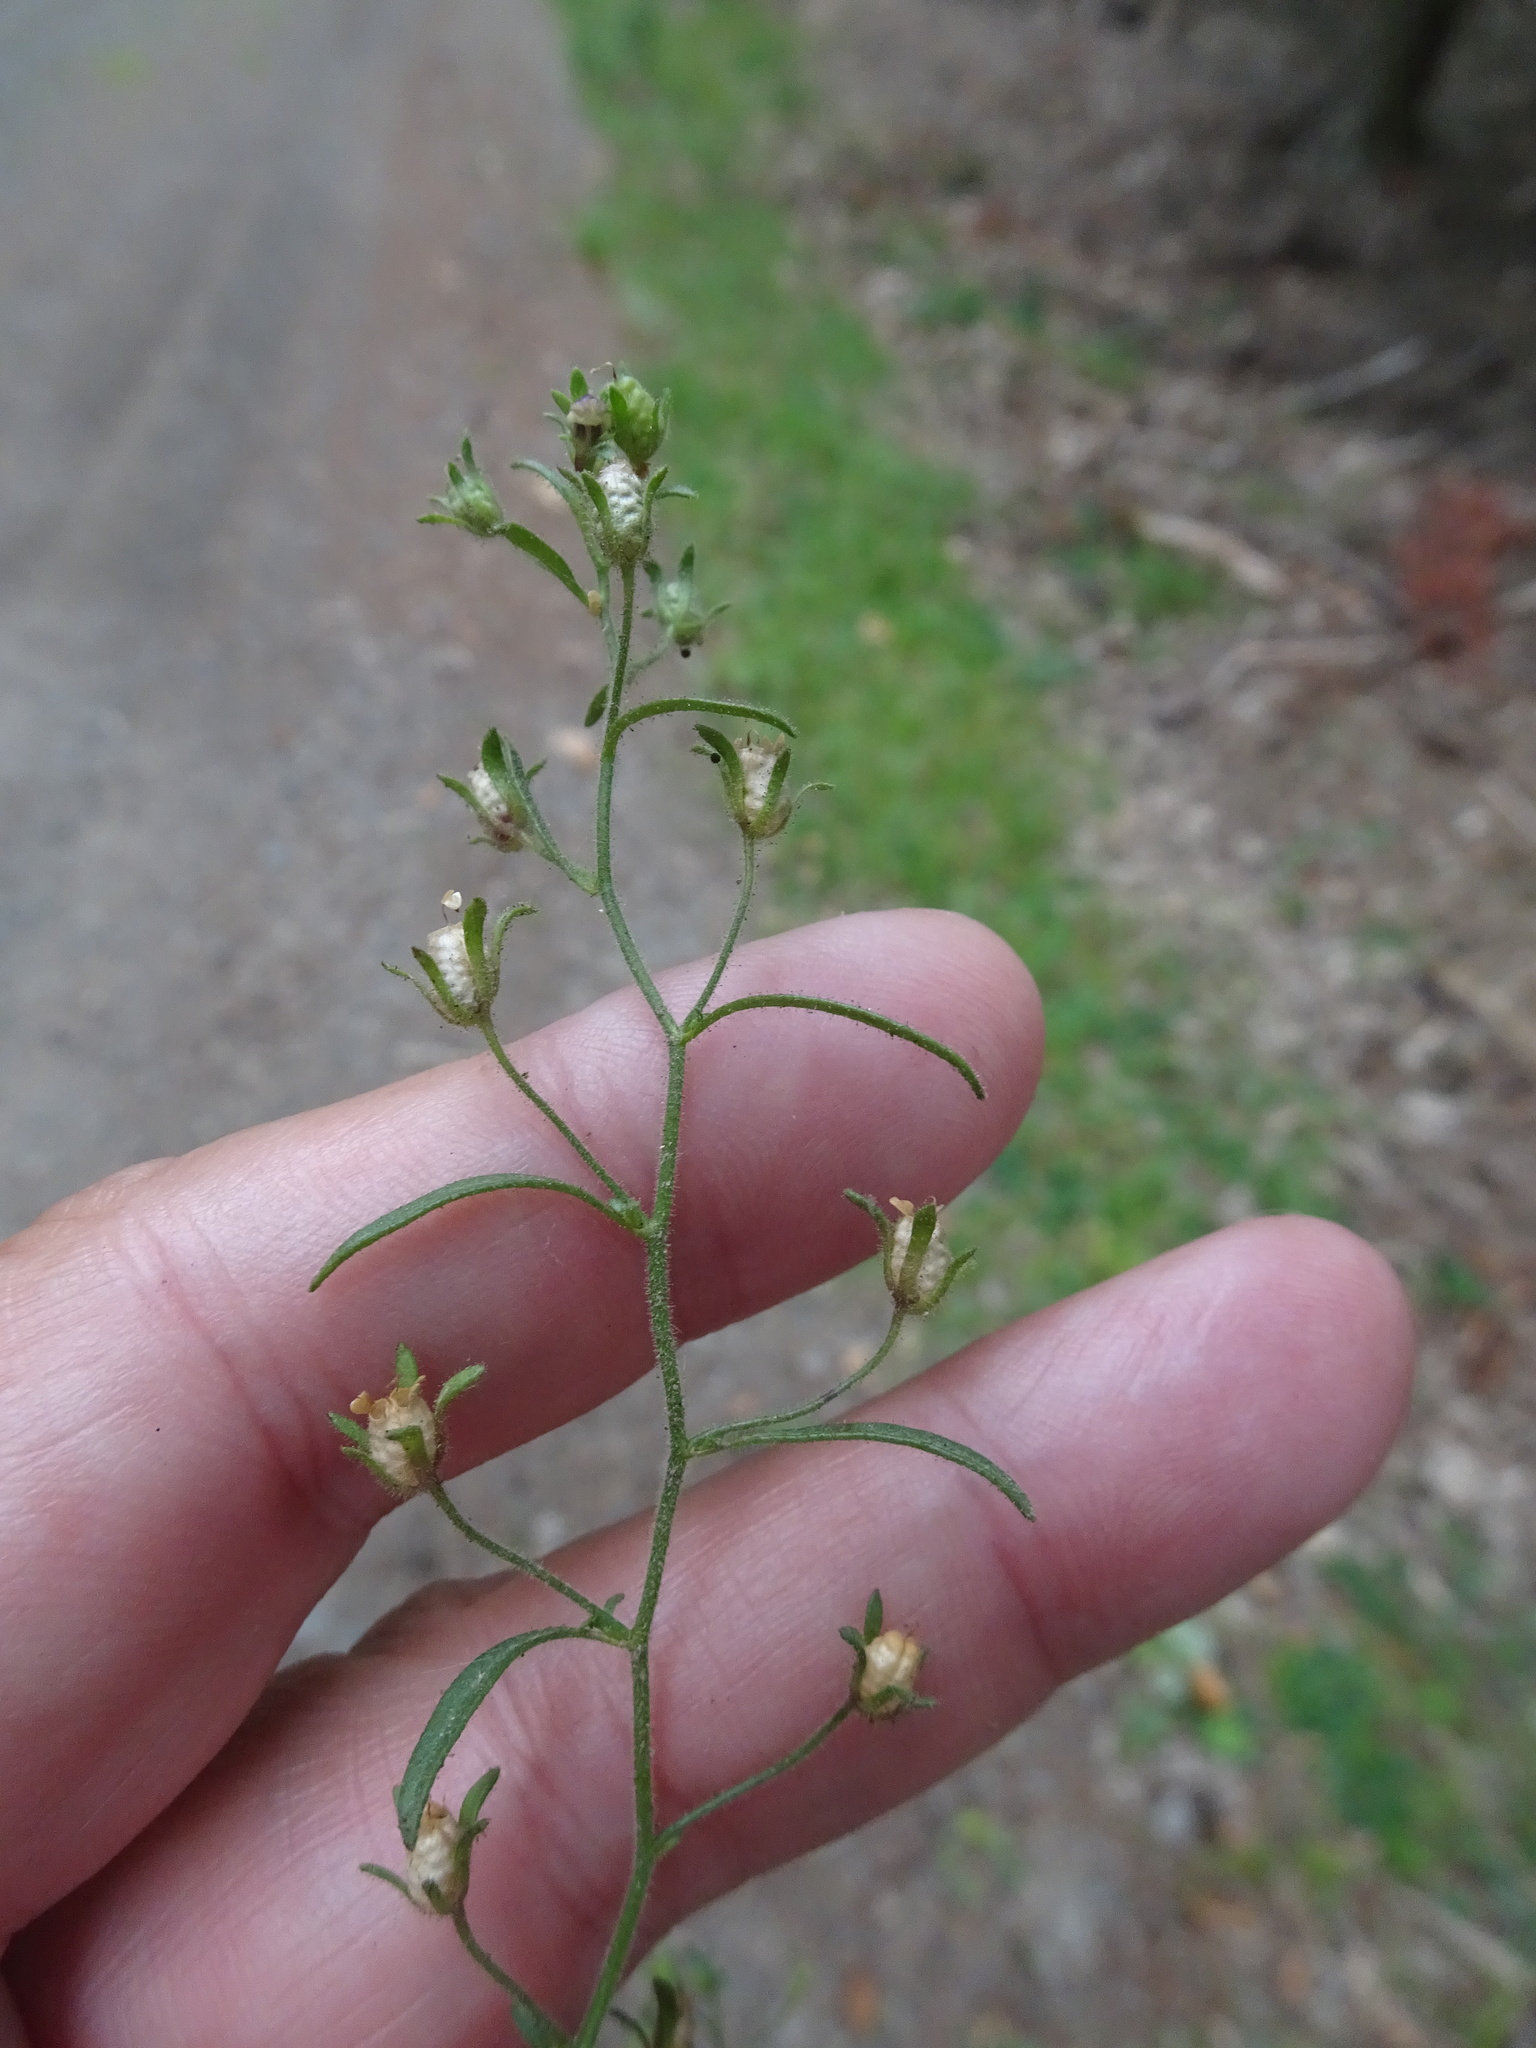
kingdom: Plantae
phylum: Tracheophyta
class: Magnoliopsida
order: Lamiales
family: Plantaginaceae
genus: Chaenorhinum
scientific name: Chaenorhinum minus
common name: Dwarf snapdragon
